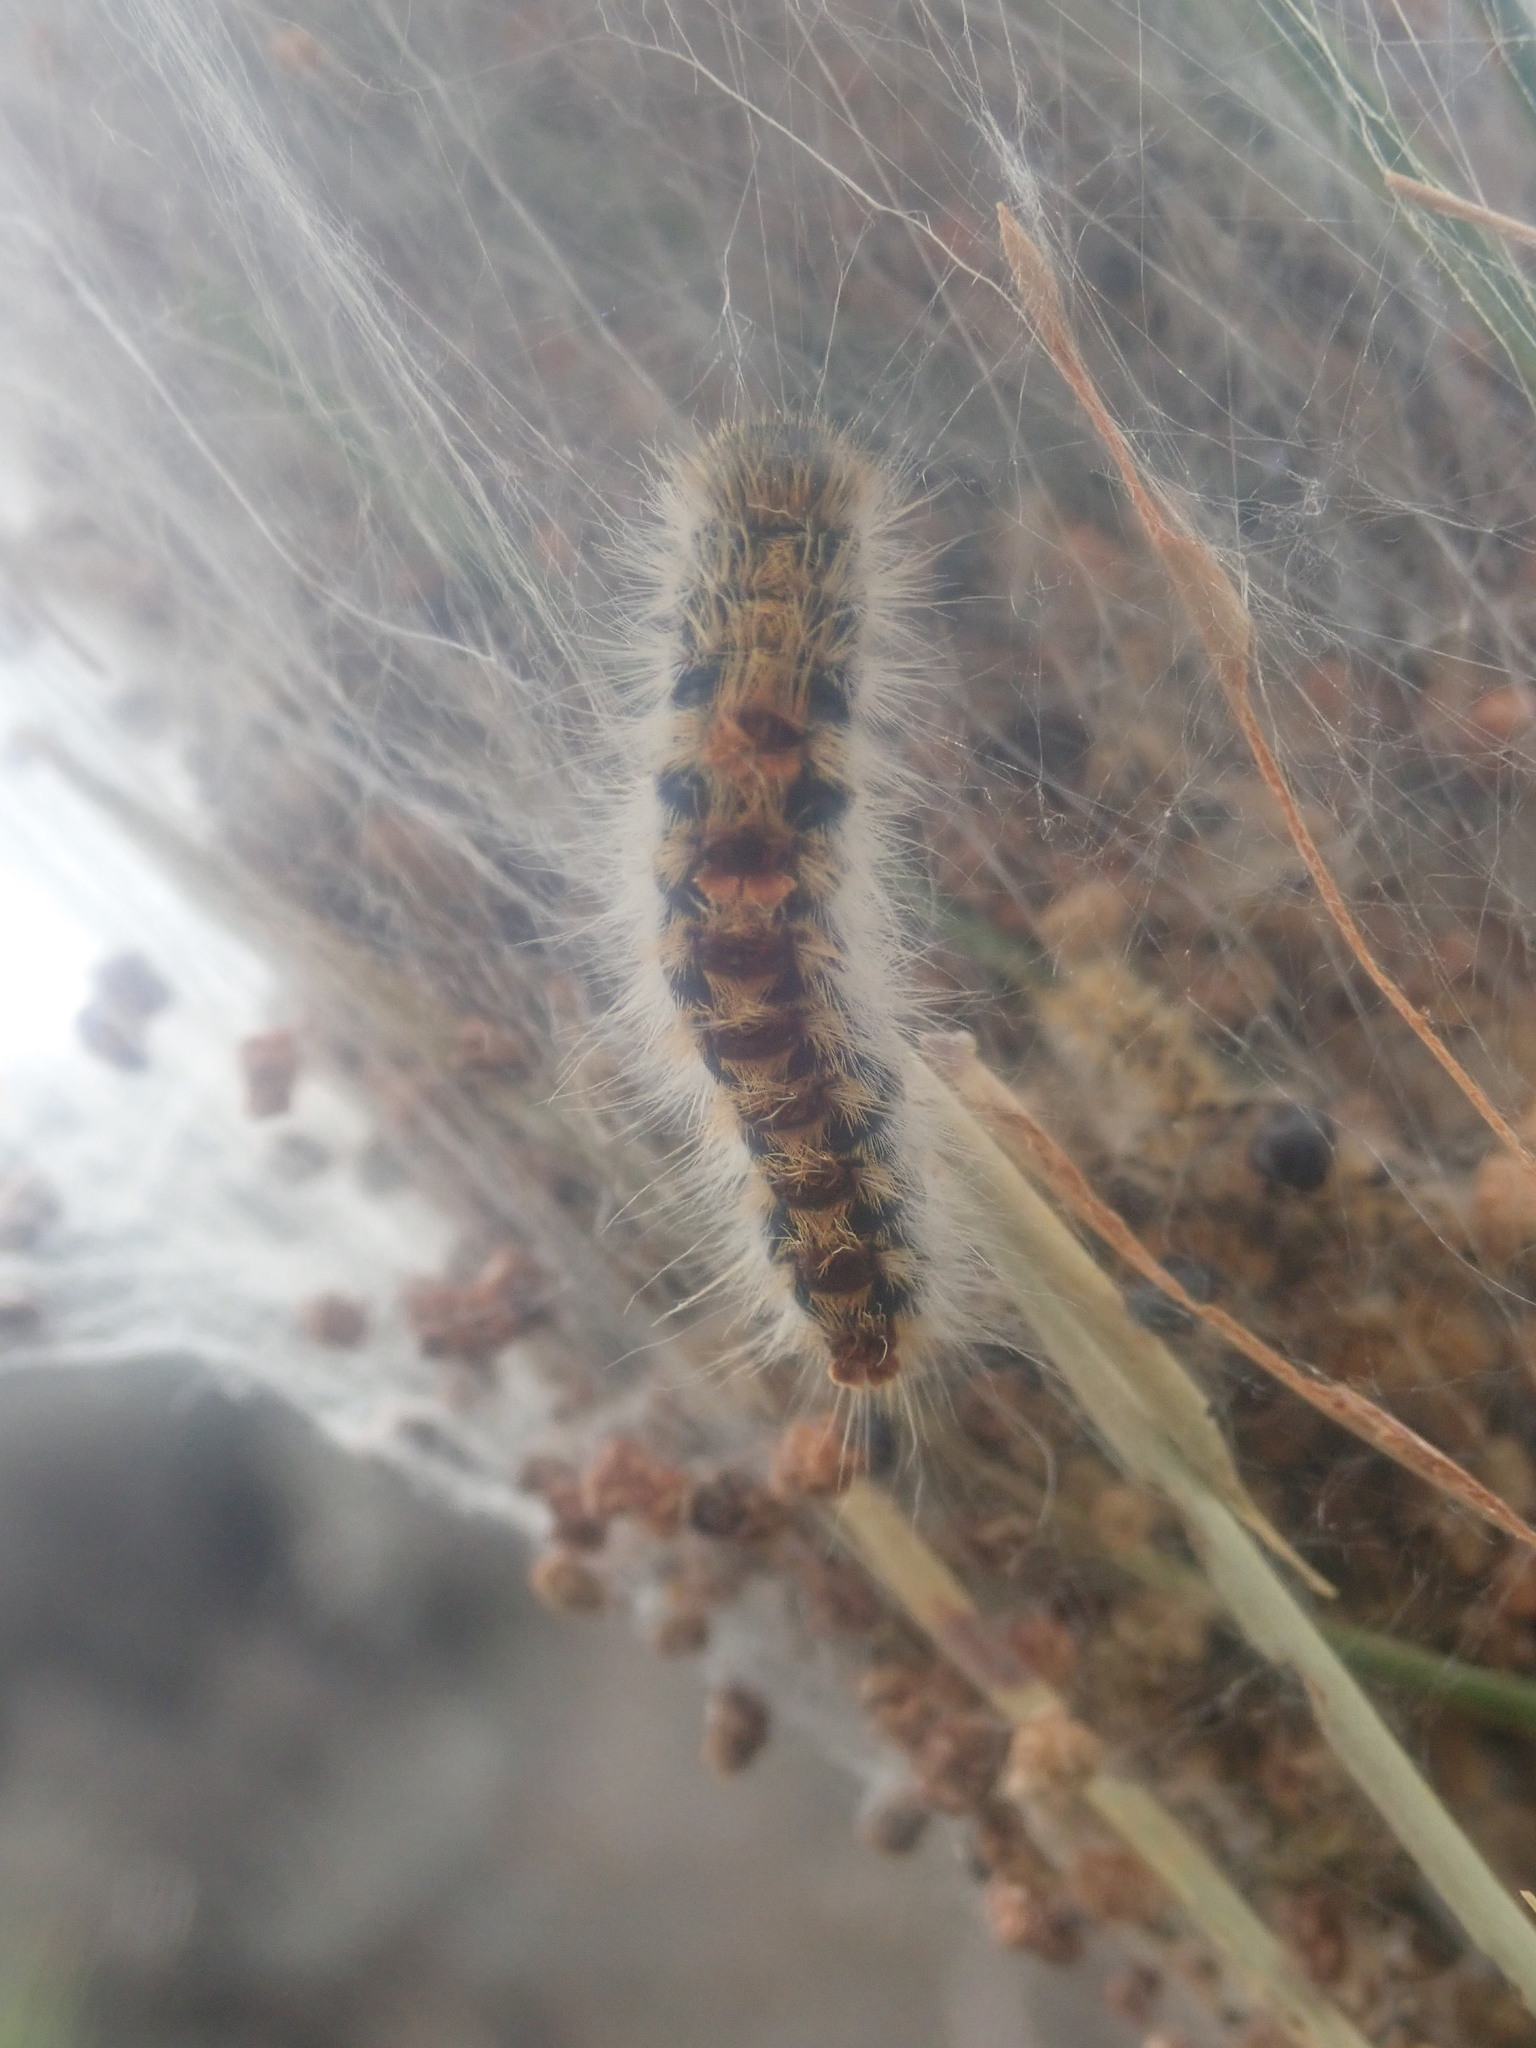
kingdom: Animalia
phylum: Arthropoda
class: Insecta
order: Lepidoptera
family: Notodontidae
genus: Thaumetopoea
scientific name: Thaumetopoea pityocampa
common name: Pine processionary
